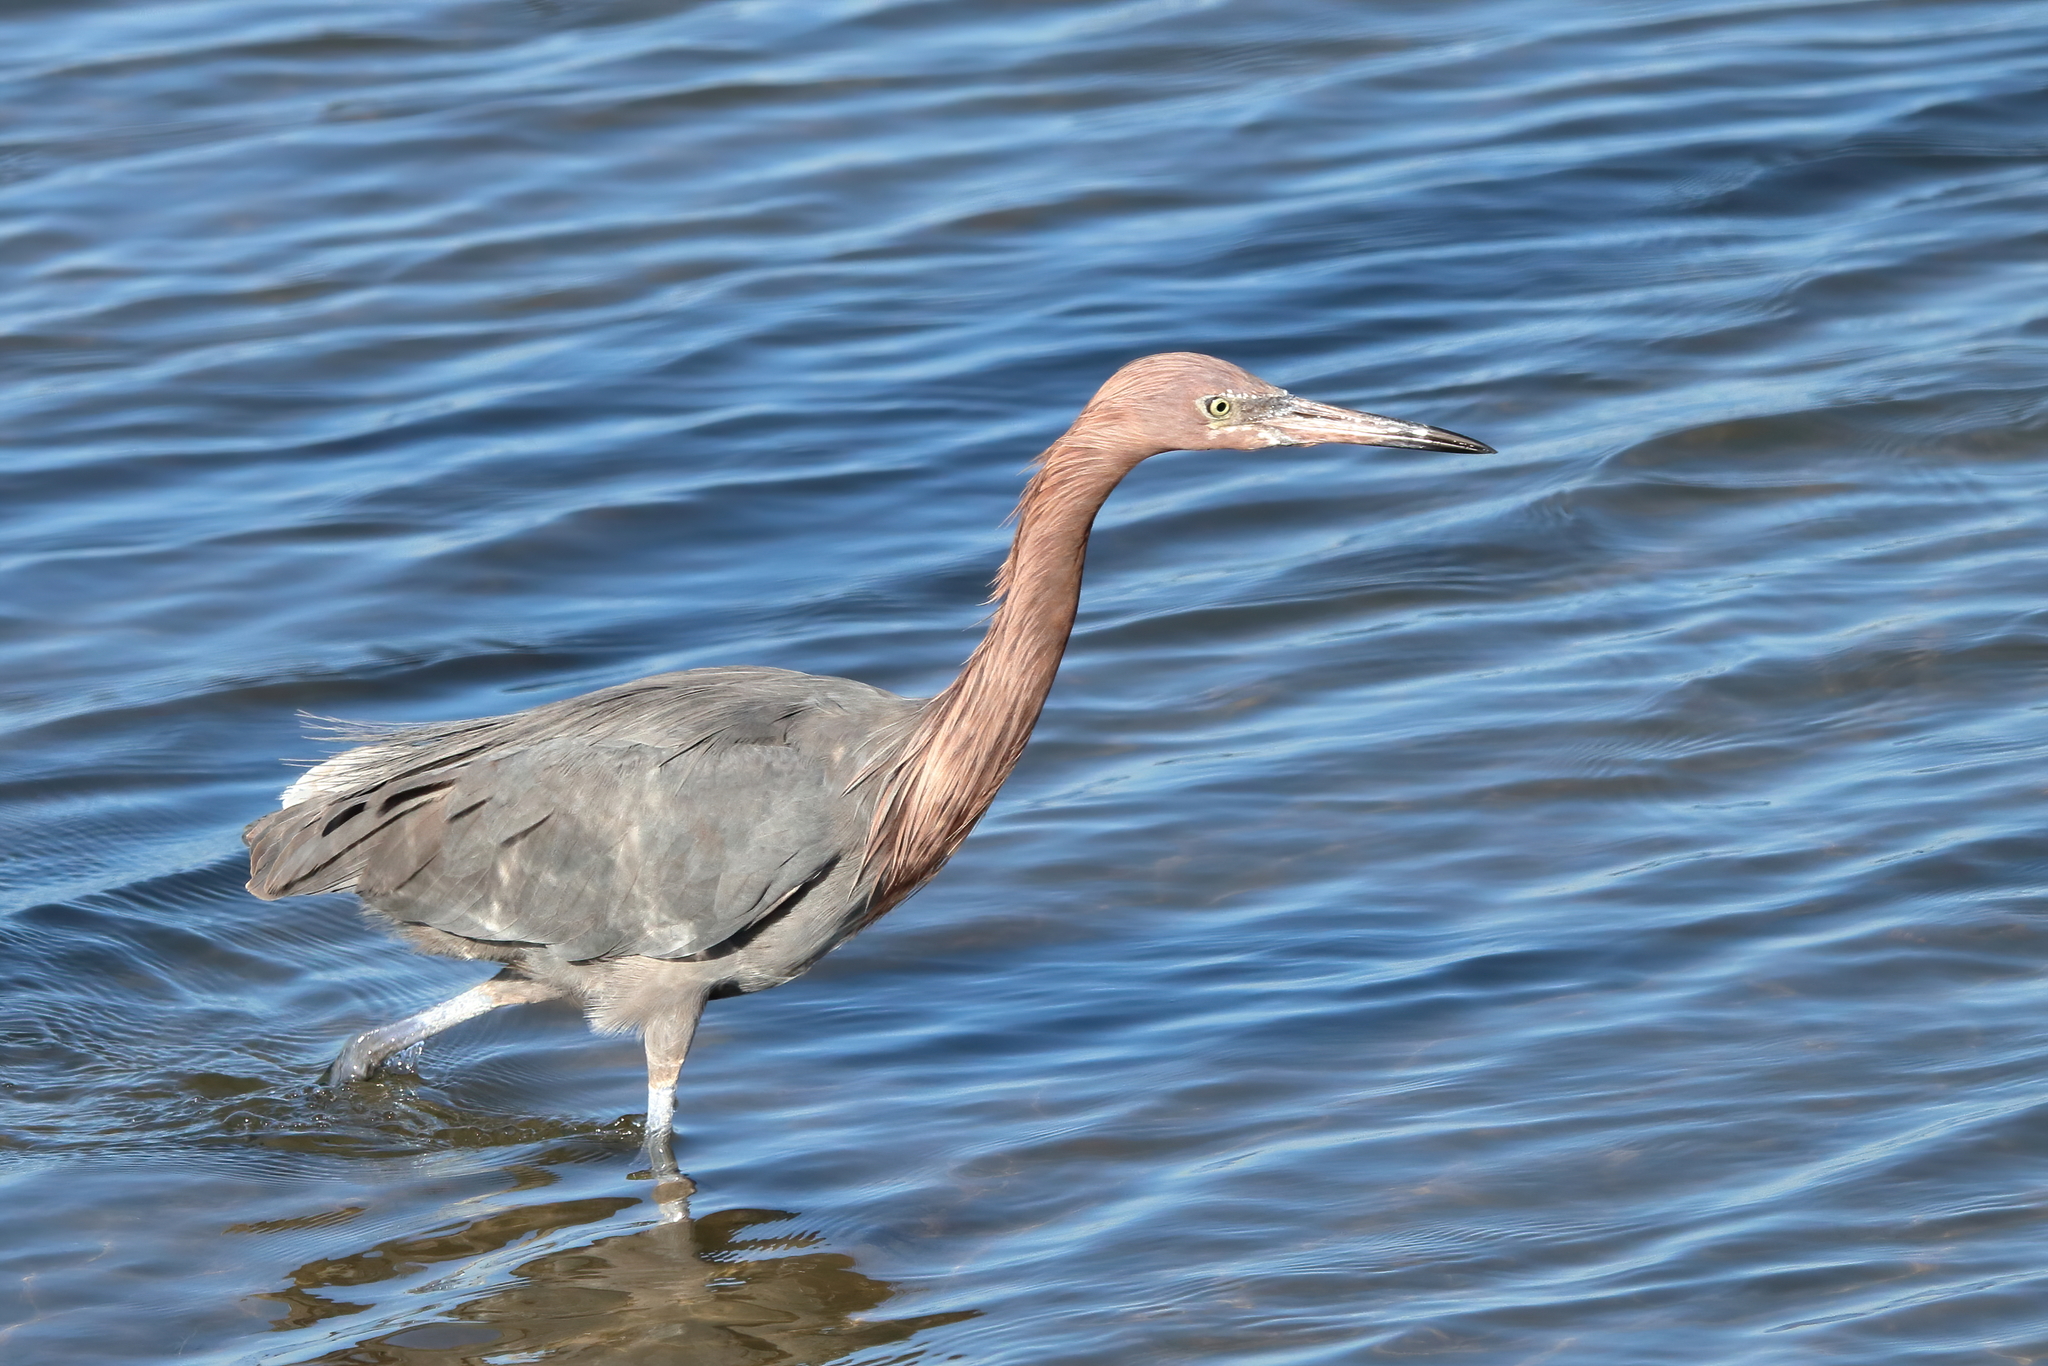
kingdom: Animalia
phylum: Chordata
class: Aves
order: Pelecaniformes
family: Ardeidae
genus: Egretta
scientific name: Egretta rufescens
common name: Reddish egret
